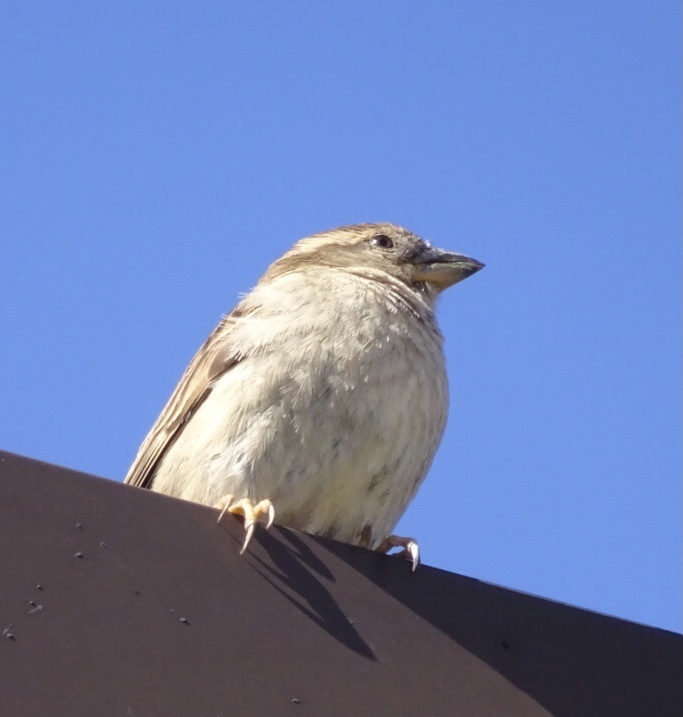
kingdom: Animalia
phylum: Chordata
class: Aves
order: Passeriformes
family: Passeridae
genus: Passer
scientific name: Passer domesticus
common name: House sparrow
